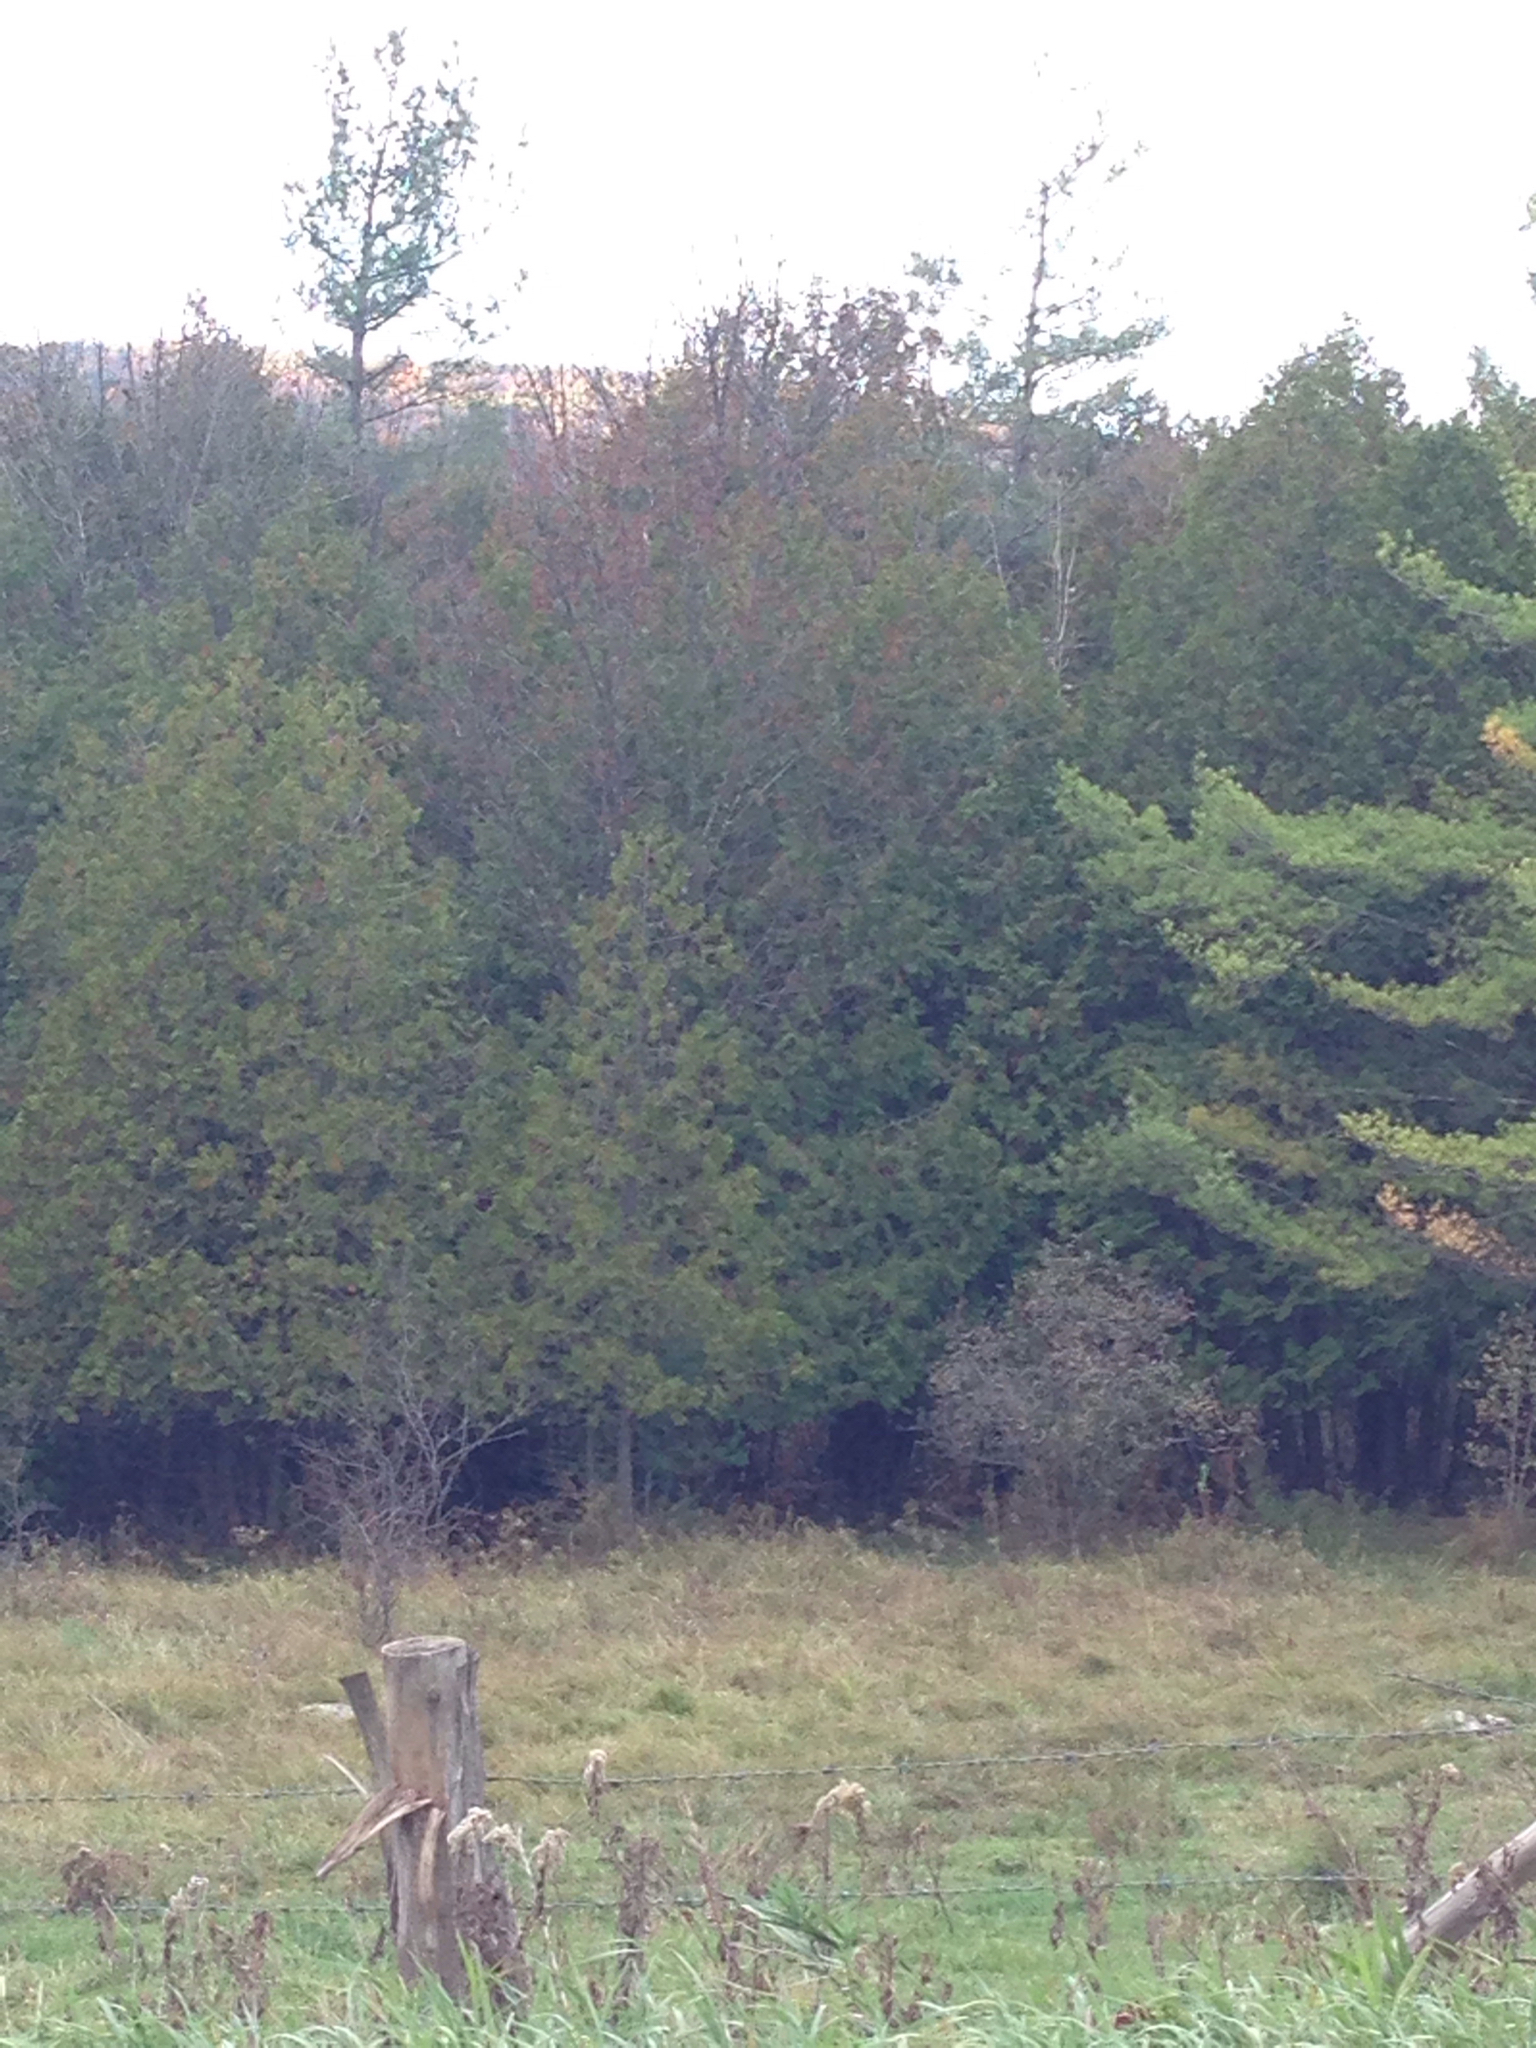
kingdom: Plantae
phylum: Tracheophyta
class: Pinopsida
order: Pinales
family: Pinaceae
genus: Pinus
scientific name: Pinus strobus
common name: Weymouth pine
